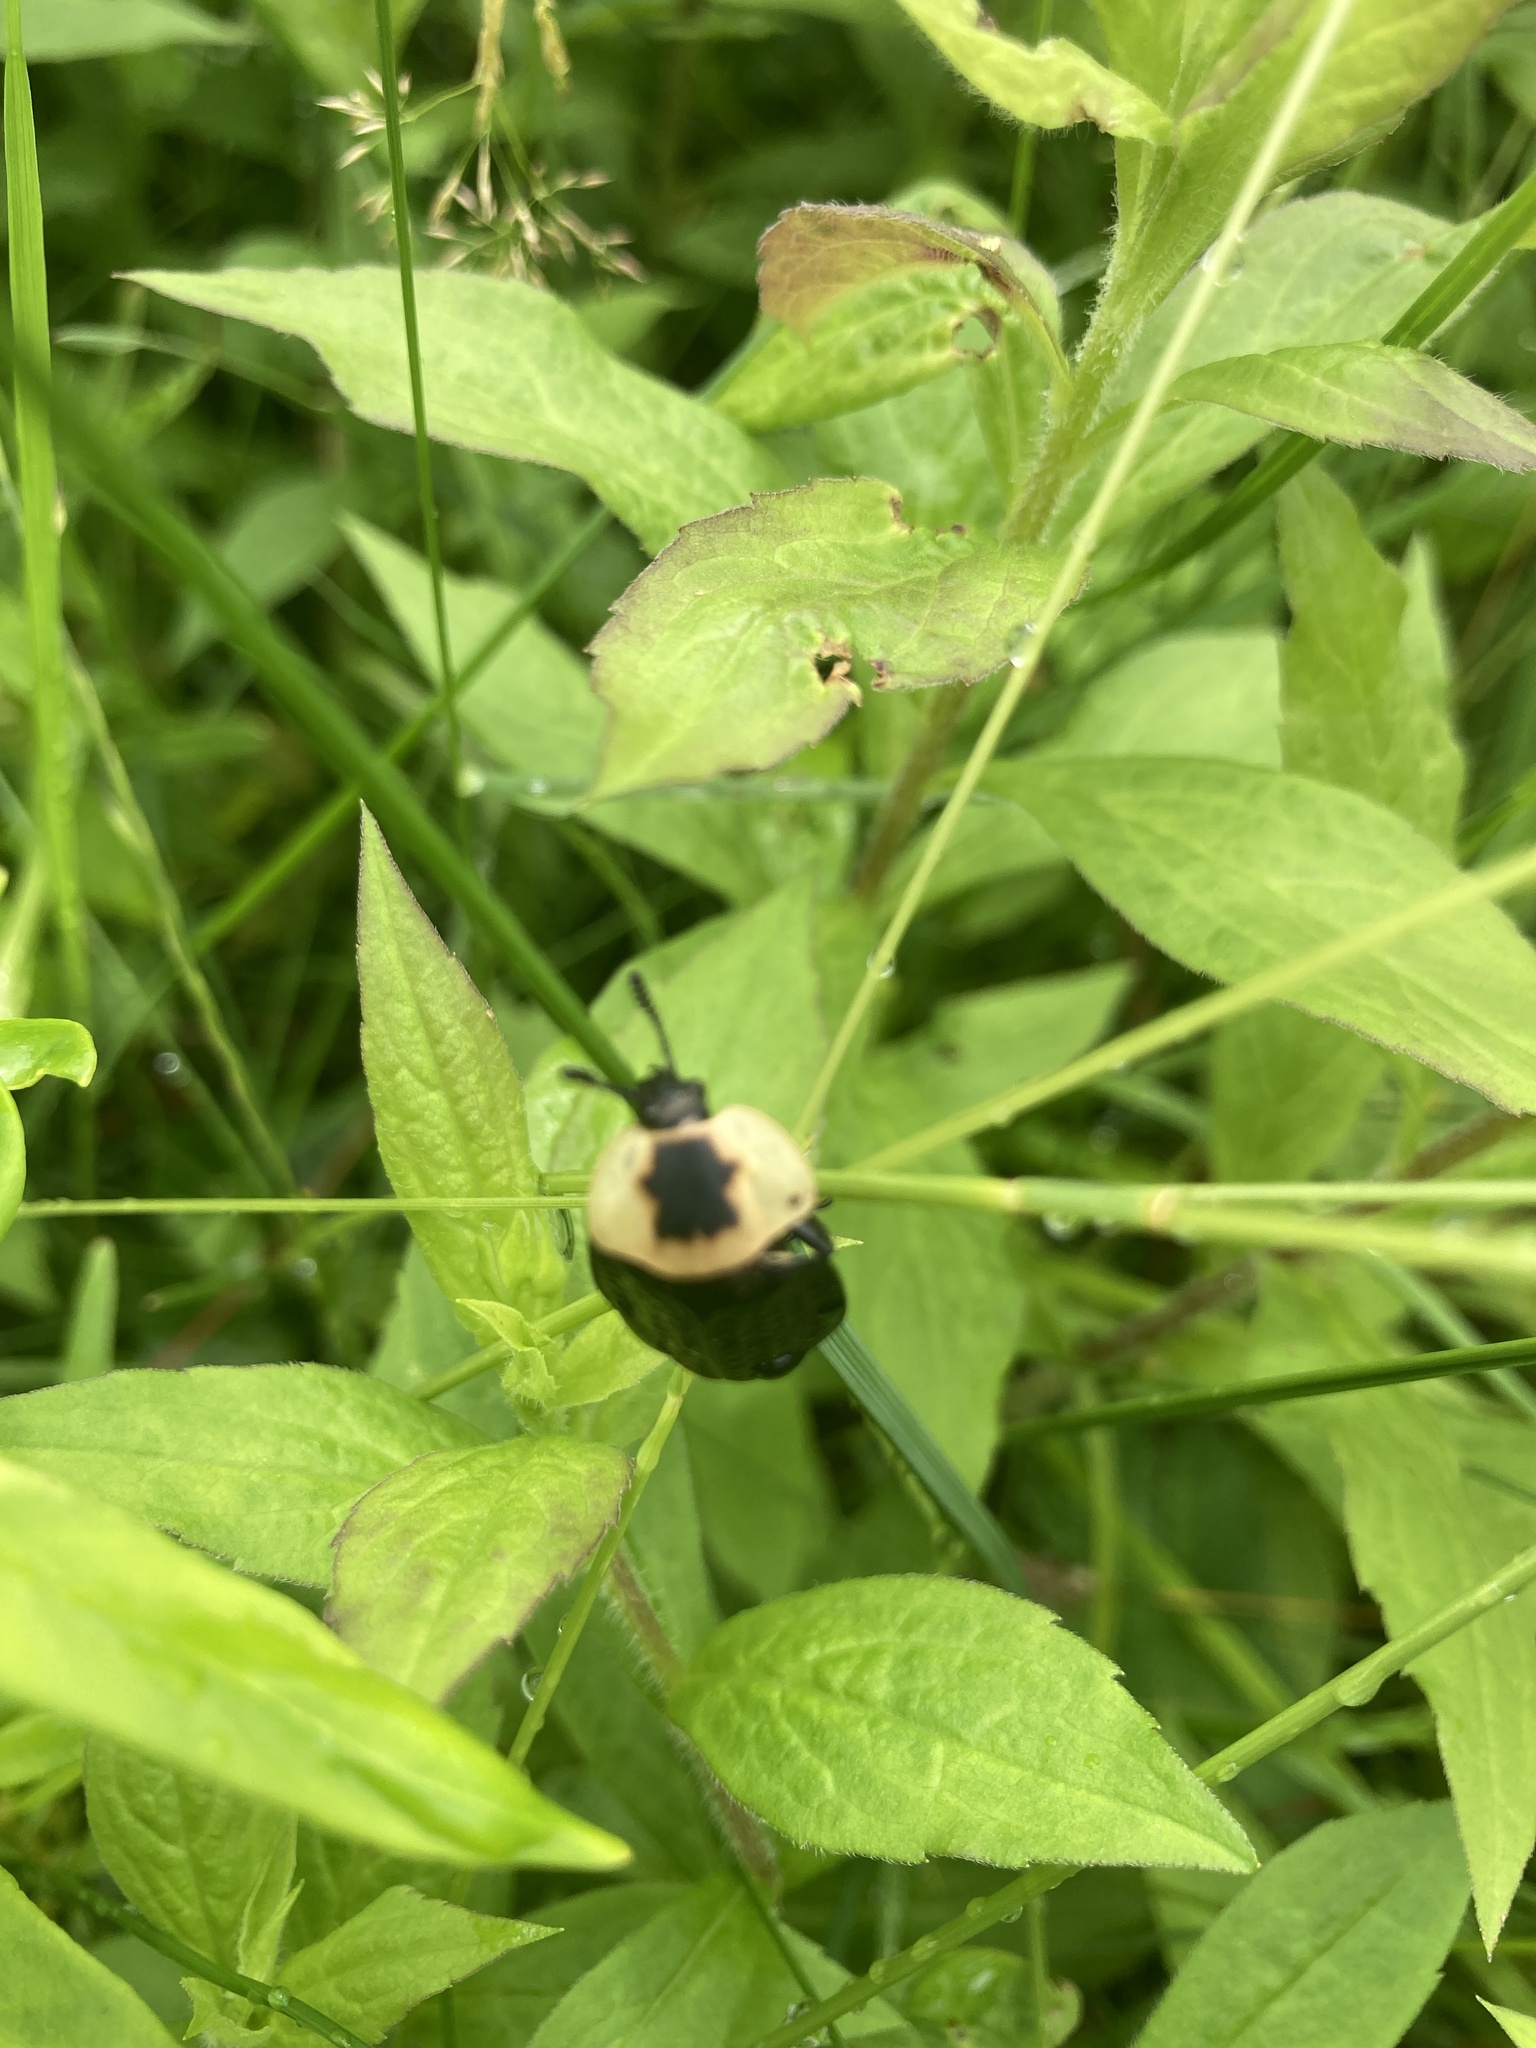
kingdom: Animalia
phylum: Arthropoda
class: Insecta
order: Coleoptera
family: Staphylinidae
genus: Necrophila
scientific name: Necrophila americana
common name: American carrion beetle
